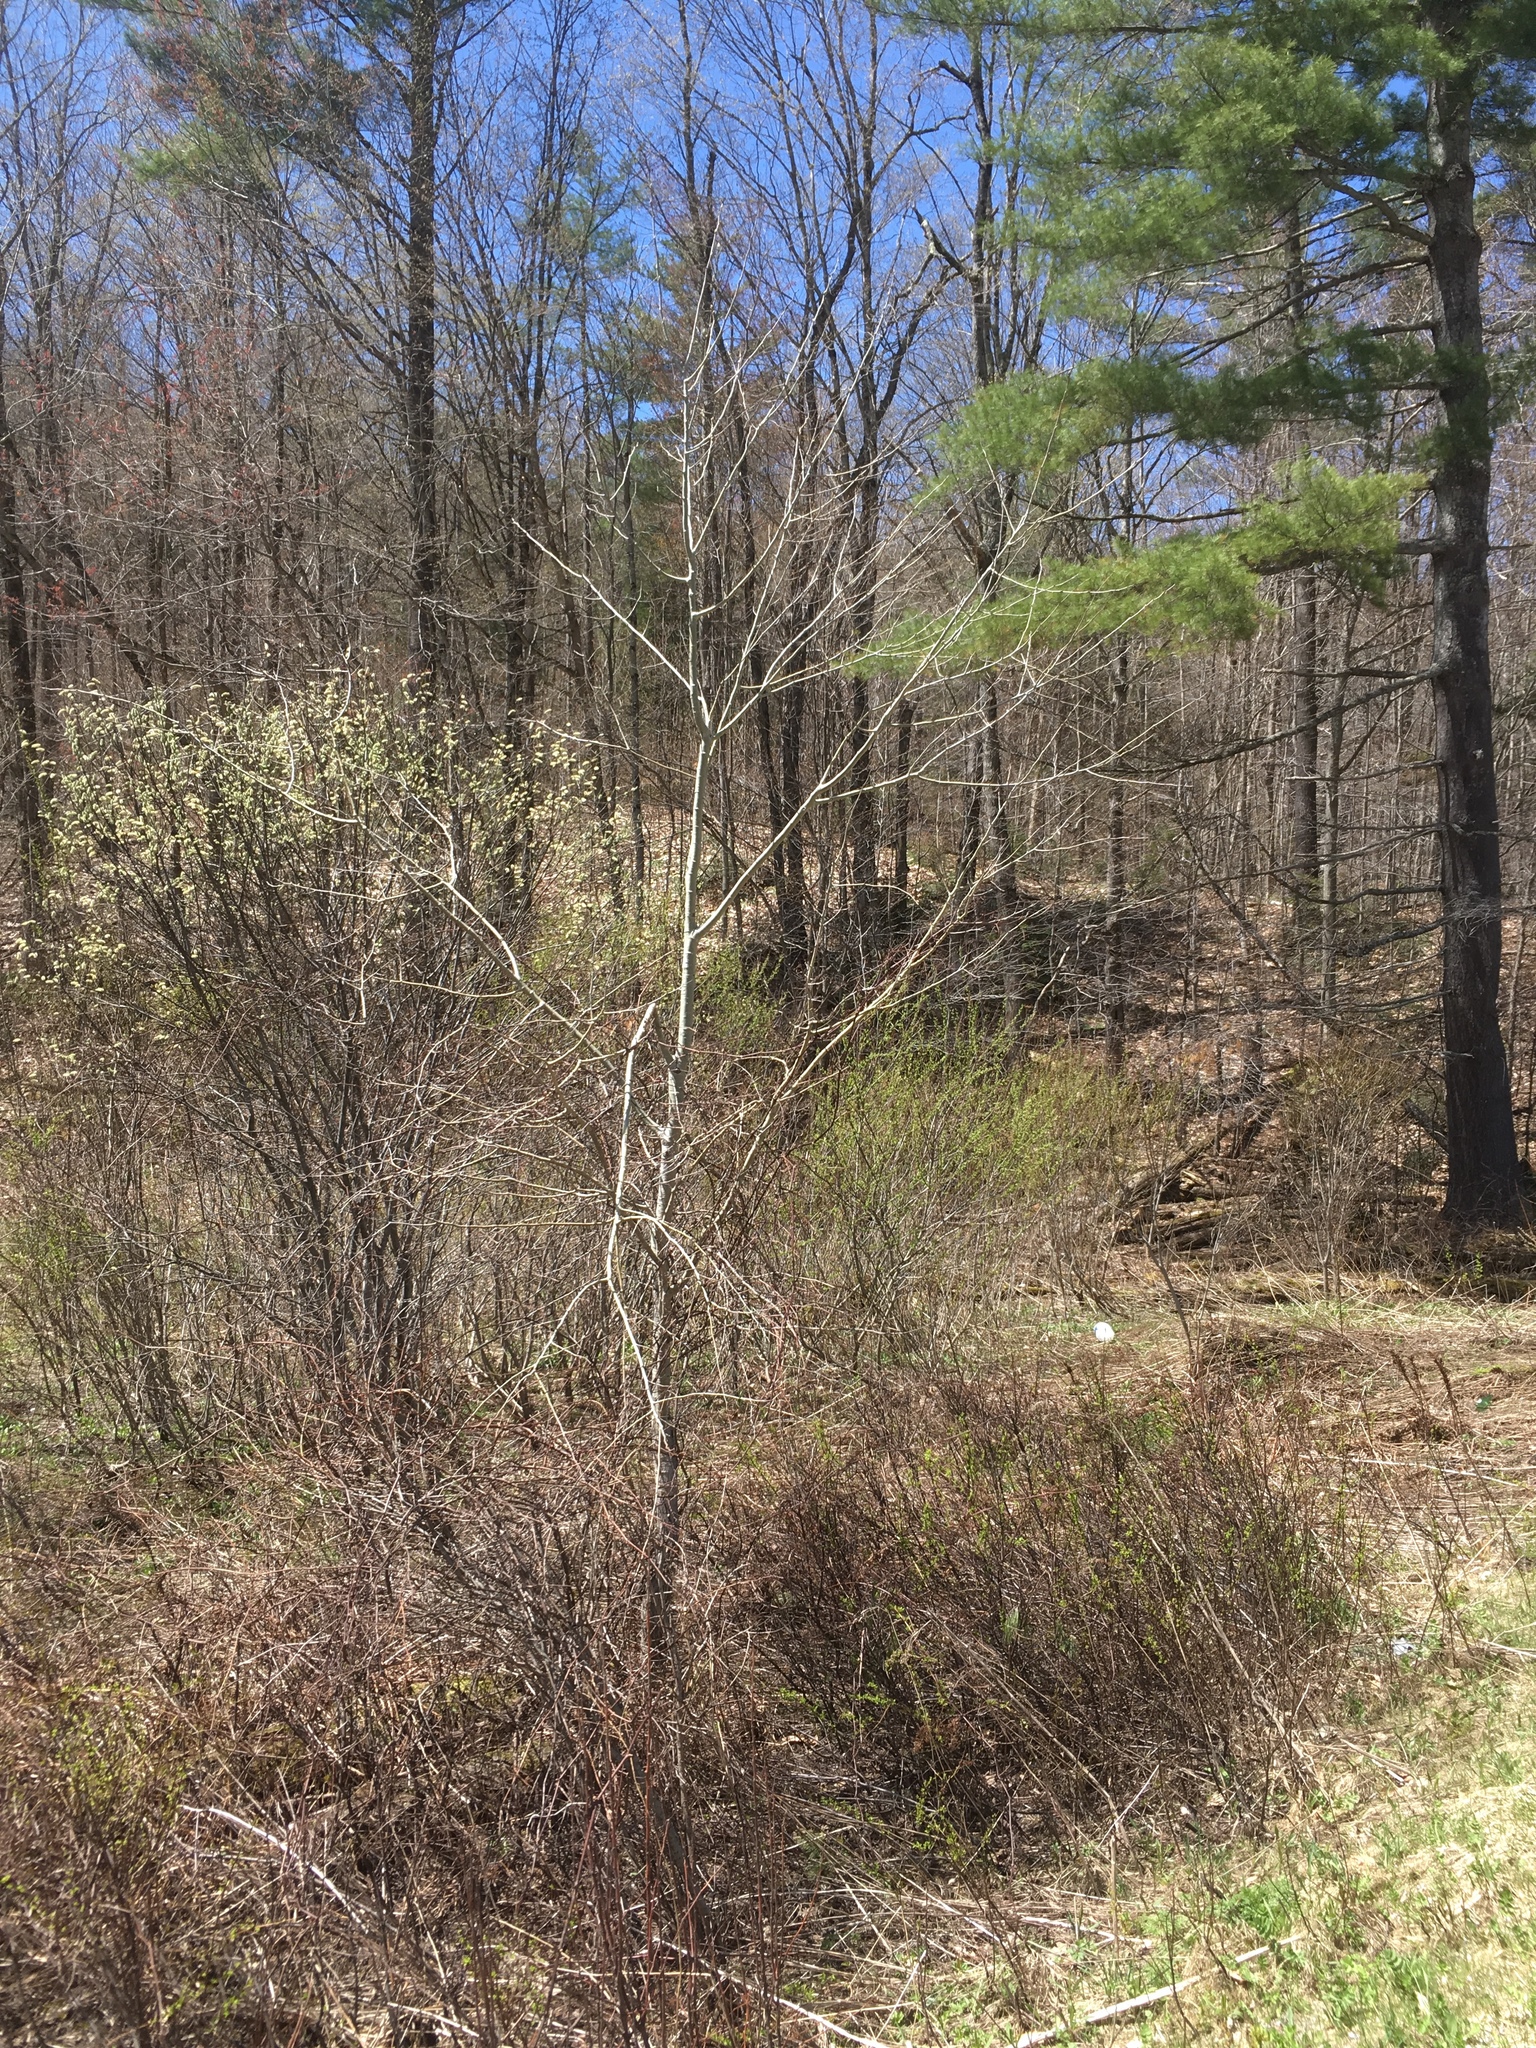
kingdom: Plantae
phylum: Tracheophyta
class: Magnoliopsida
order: Malpighiales
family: Salicaceae
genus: Populus
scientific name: Populus tremuloides
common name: Quaking aspen
